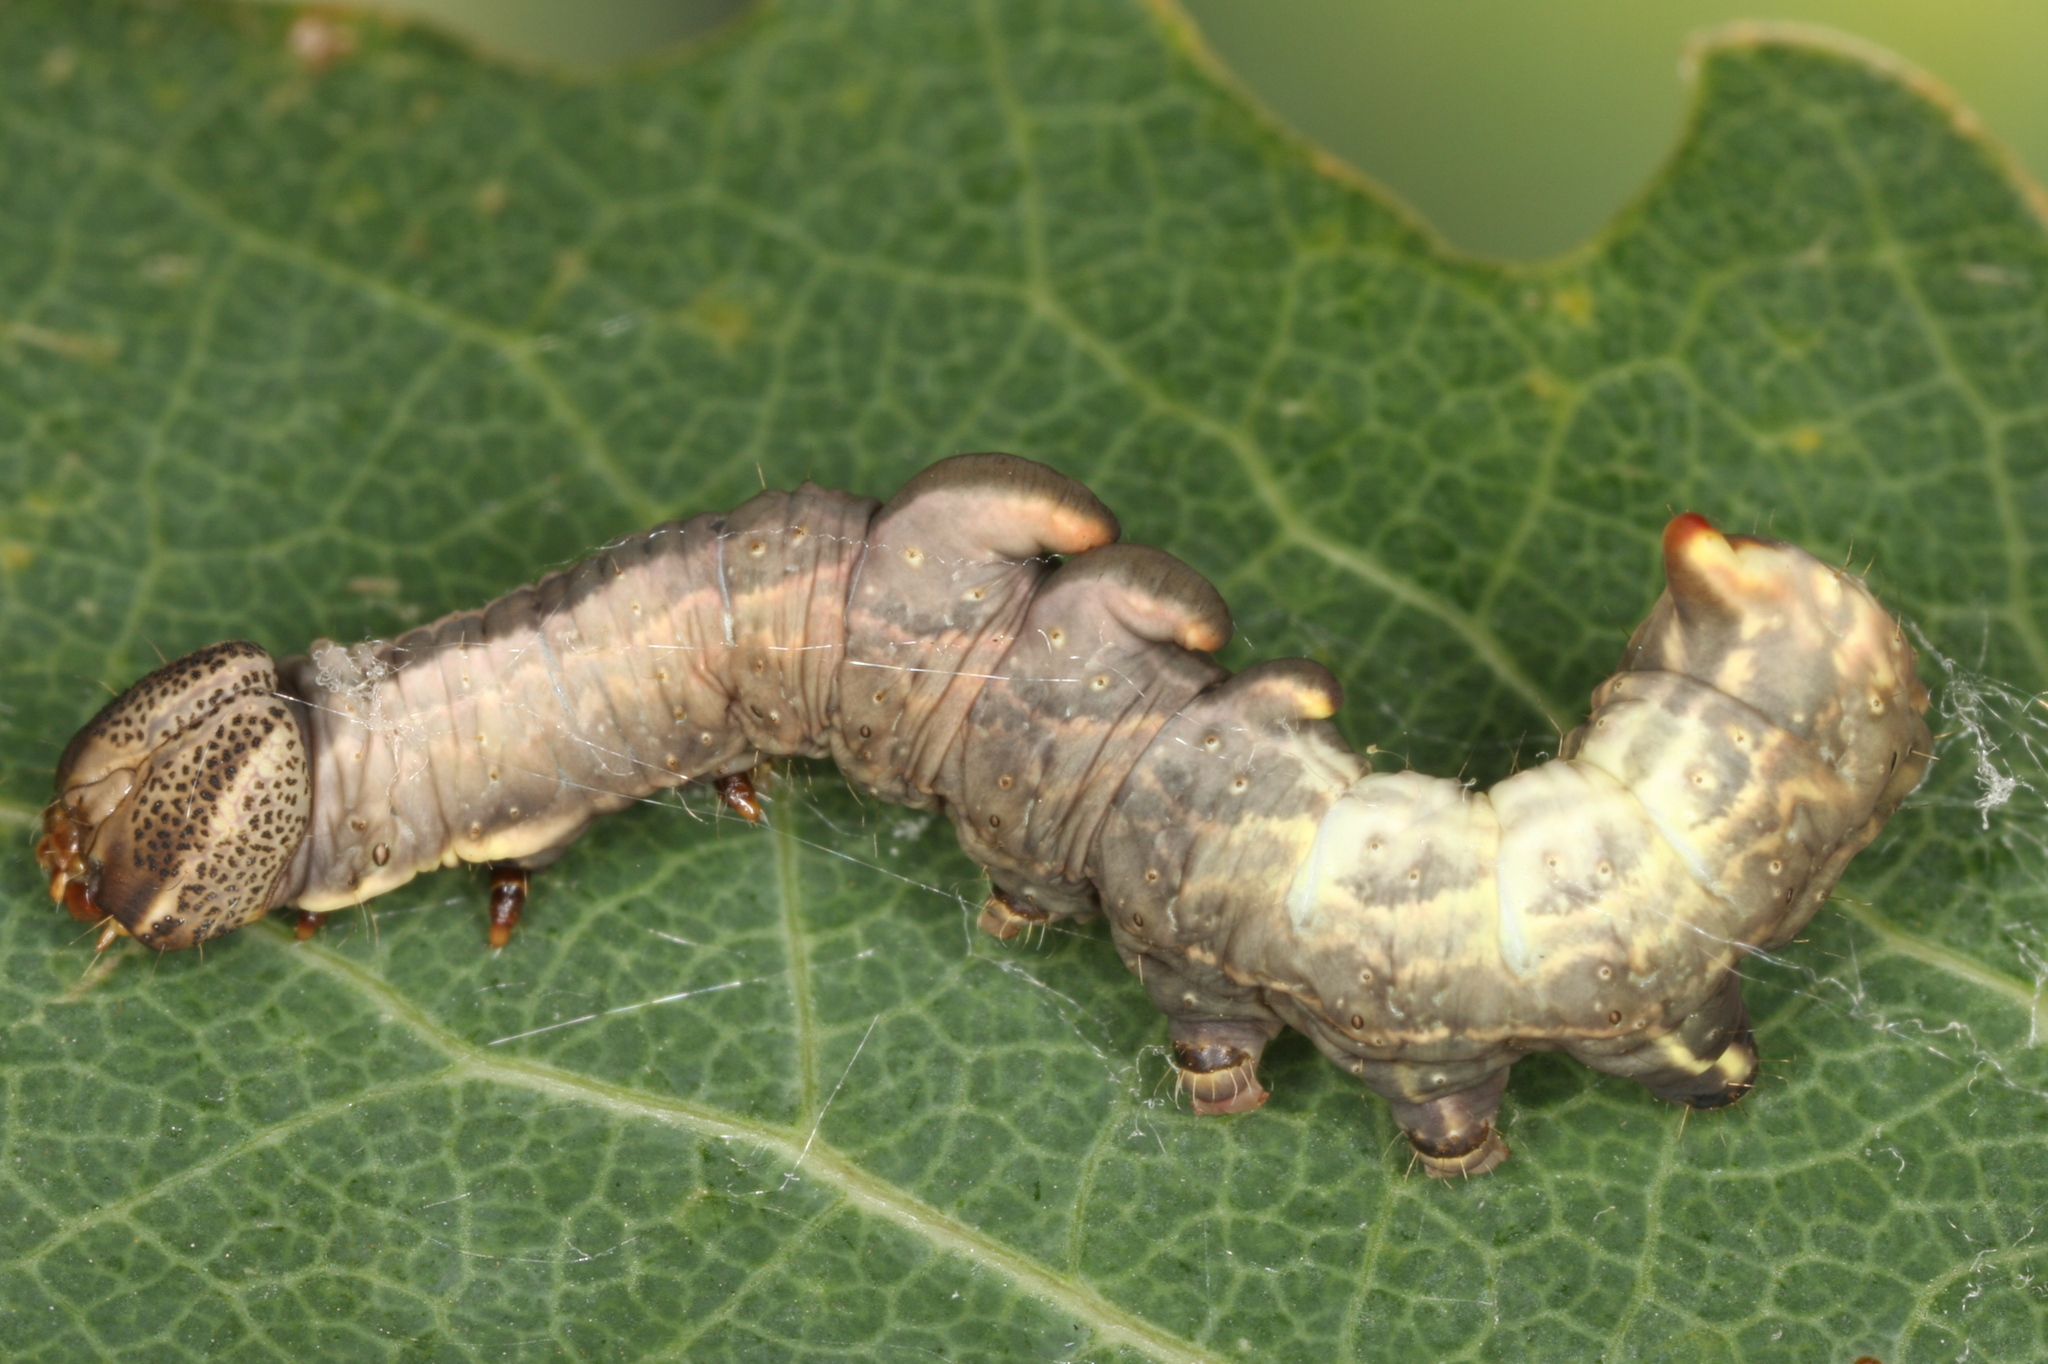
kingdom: Animalia
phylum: Arthropoda
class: Insecta
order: Lepidoptera
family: Notodontidae
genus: Notodonta
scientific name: Notodonta tritophus
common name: Three-humped prominent
